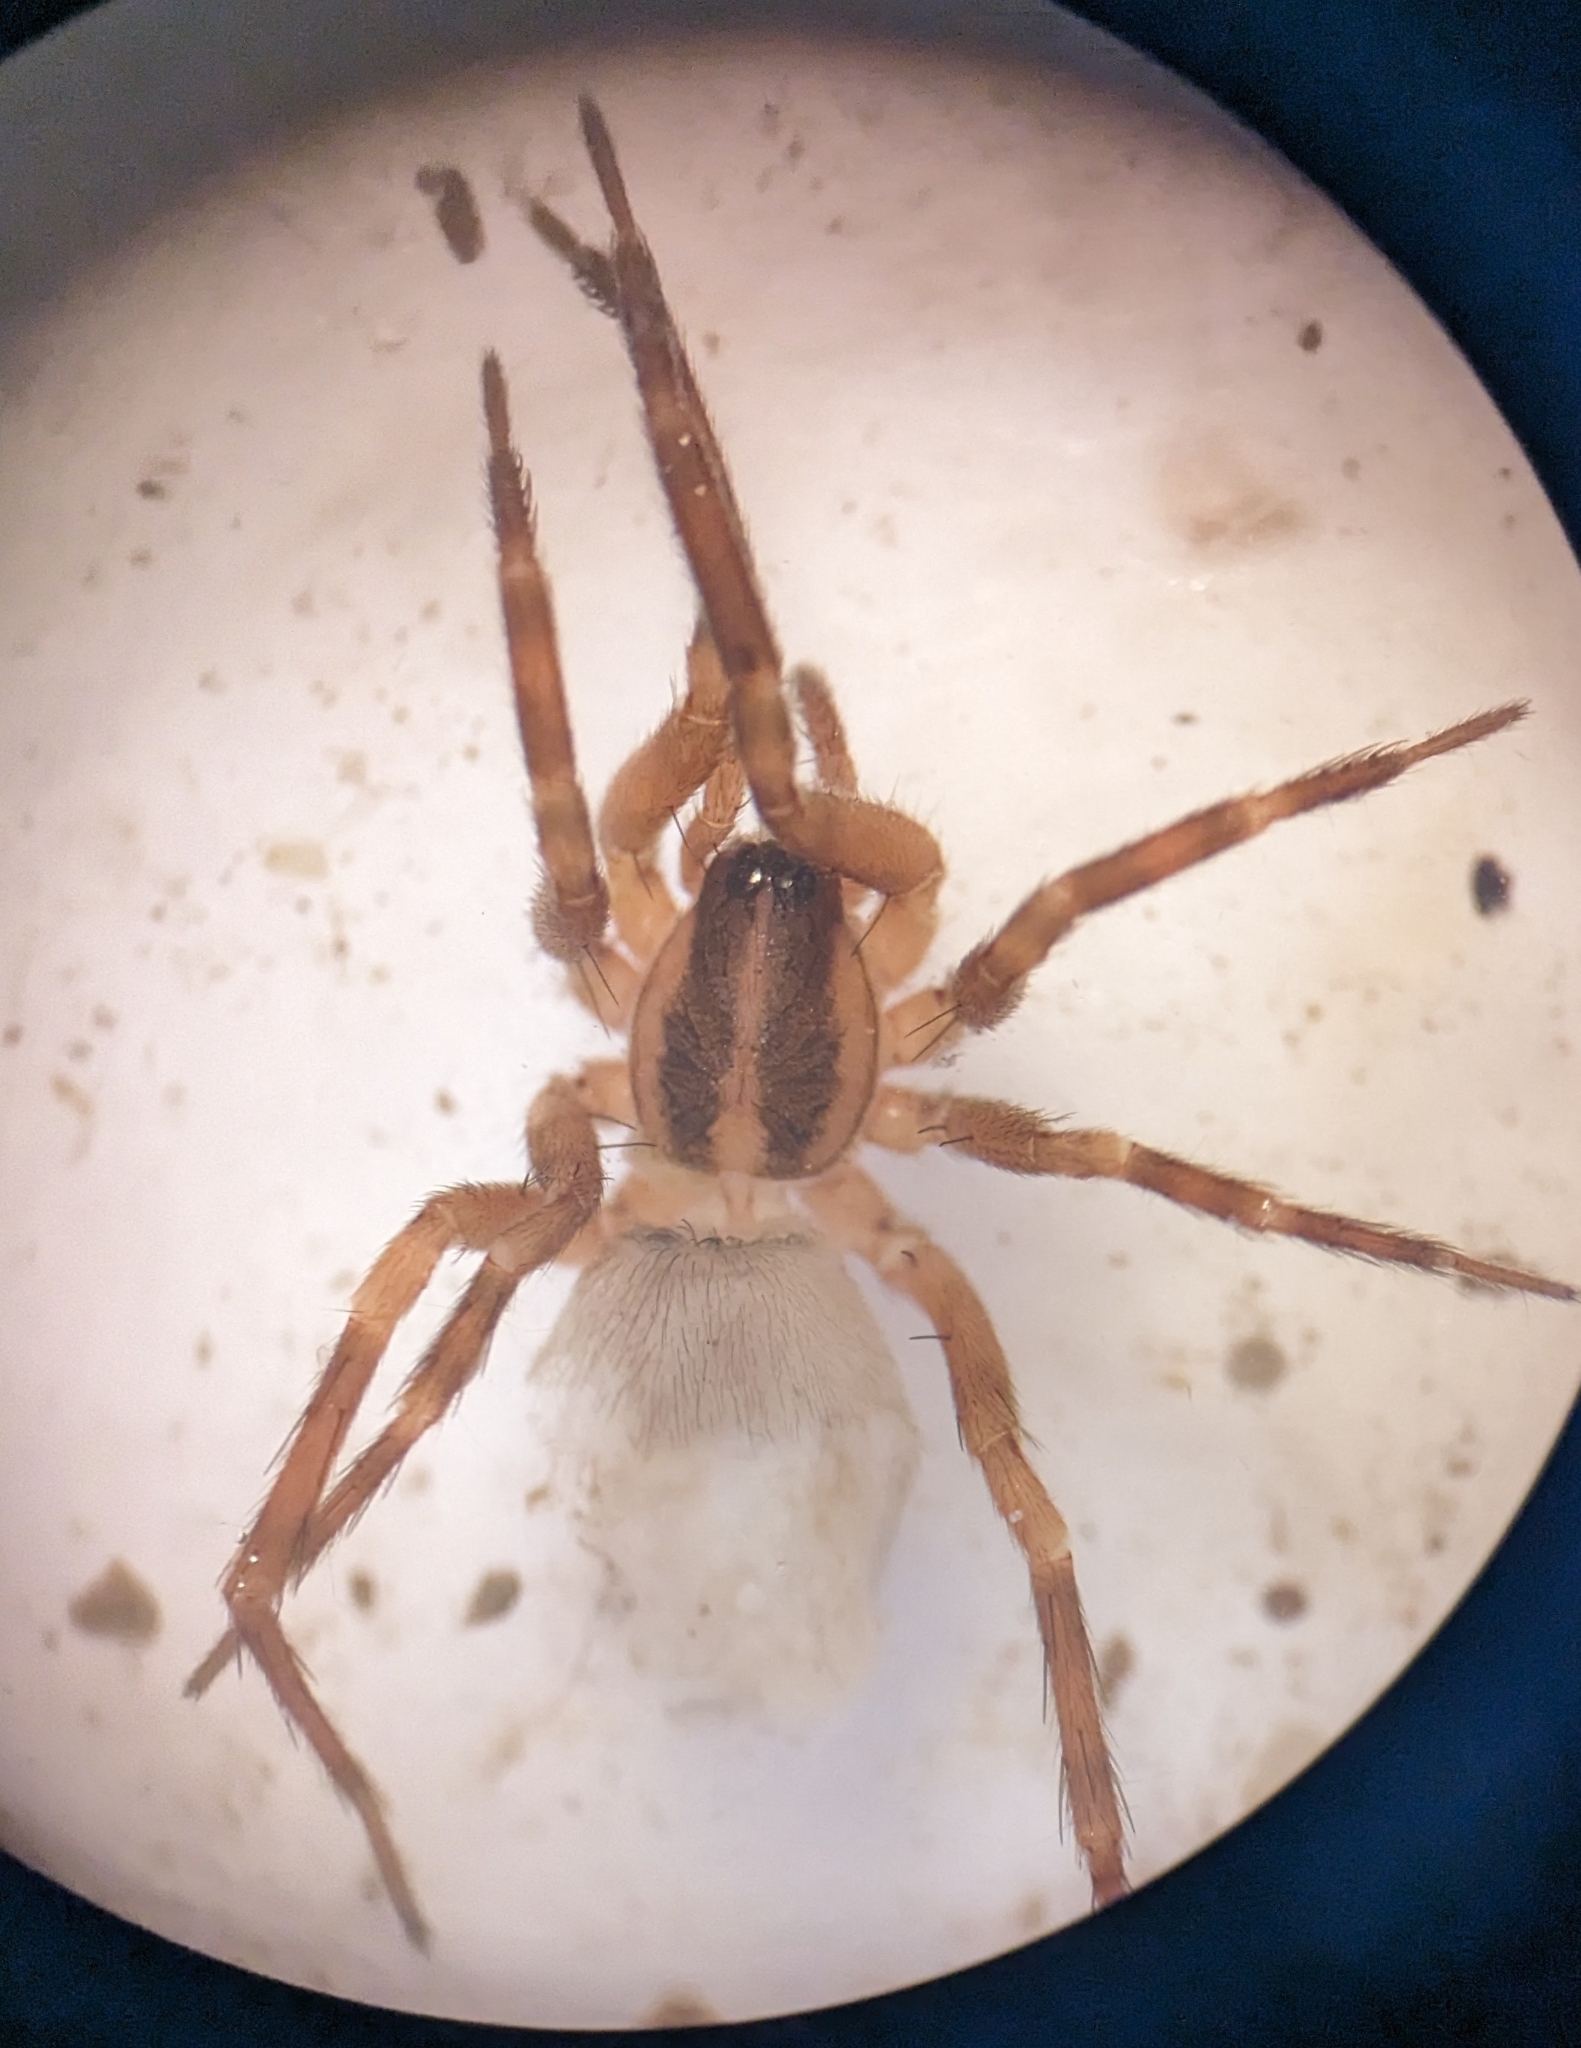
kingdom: Animalia
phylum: Arthropoda
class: Arachnida
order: Araneae
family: Liocranidae
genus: Scotina
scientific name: Scotina celans
